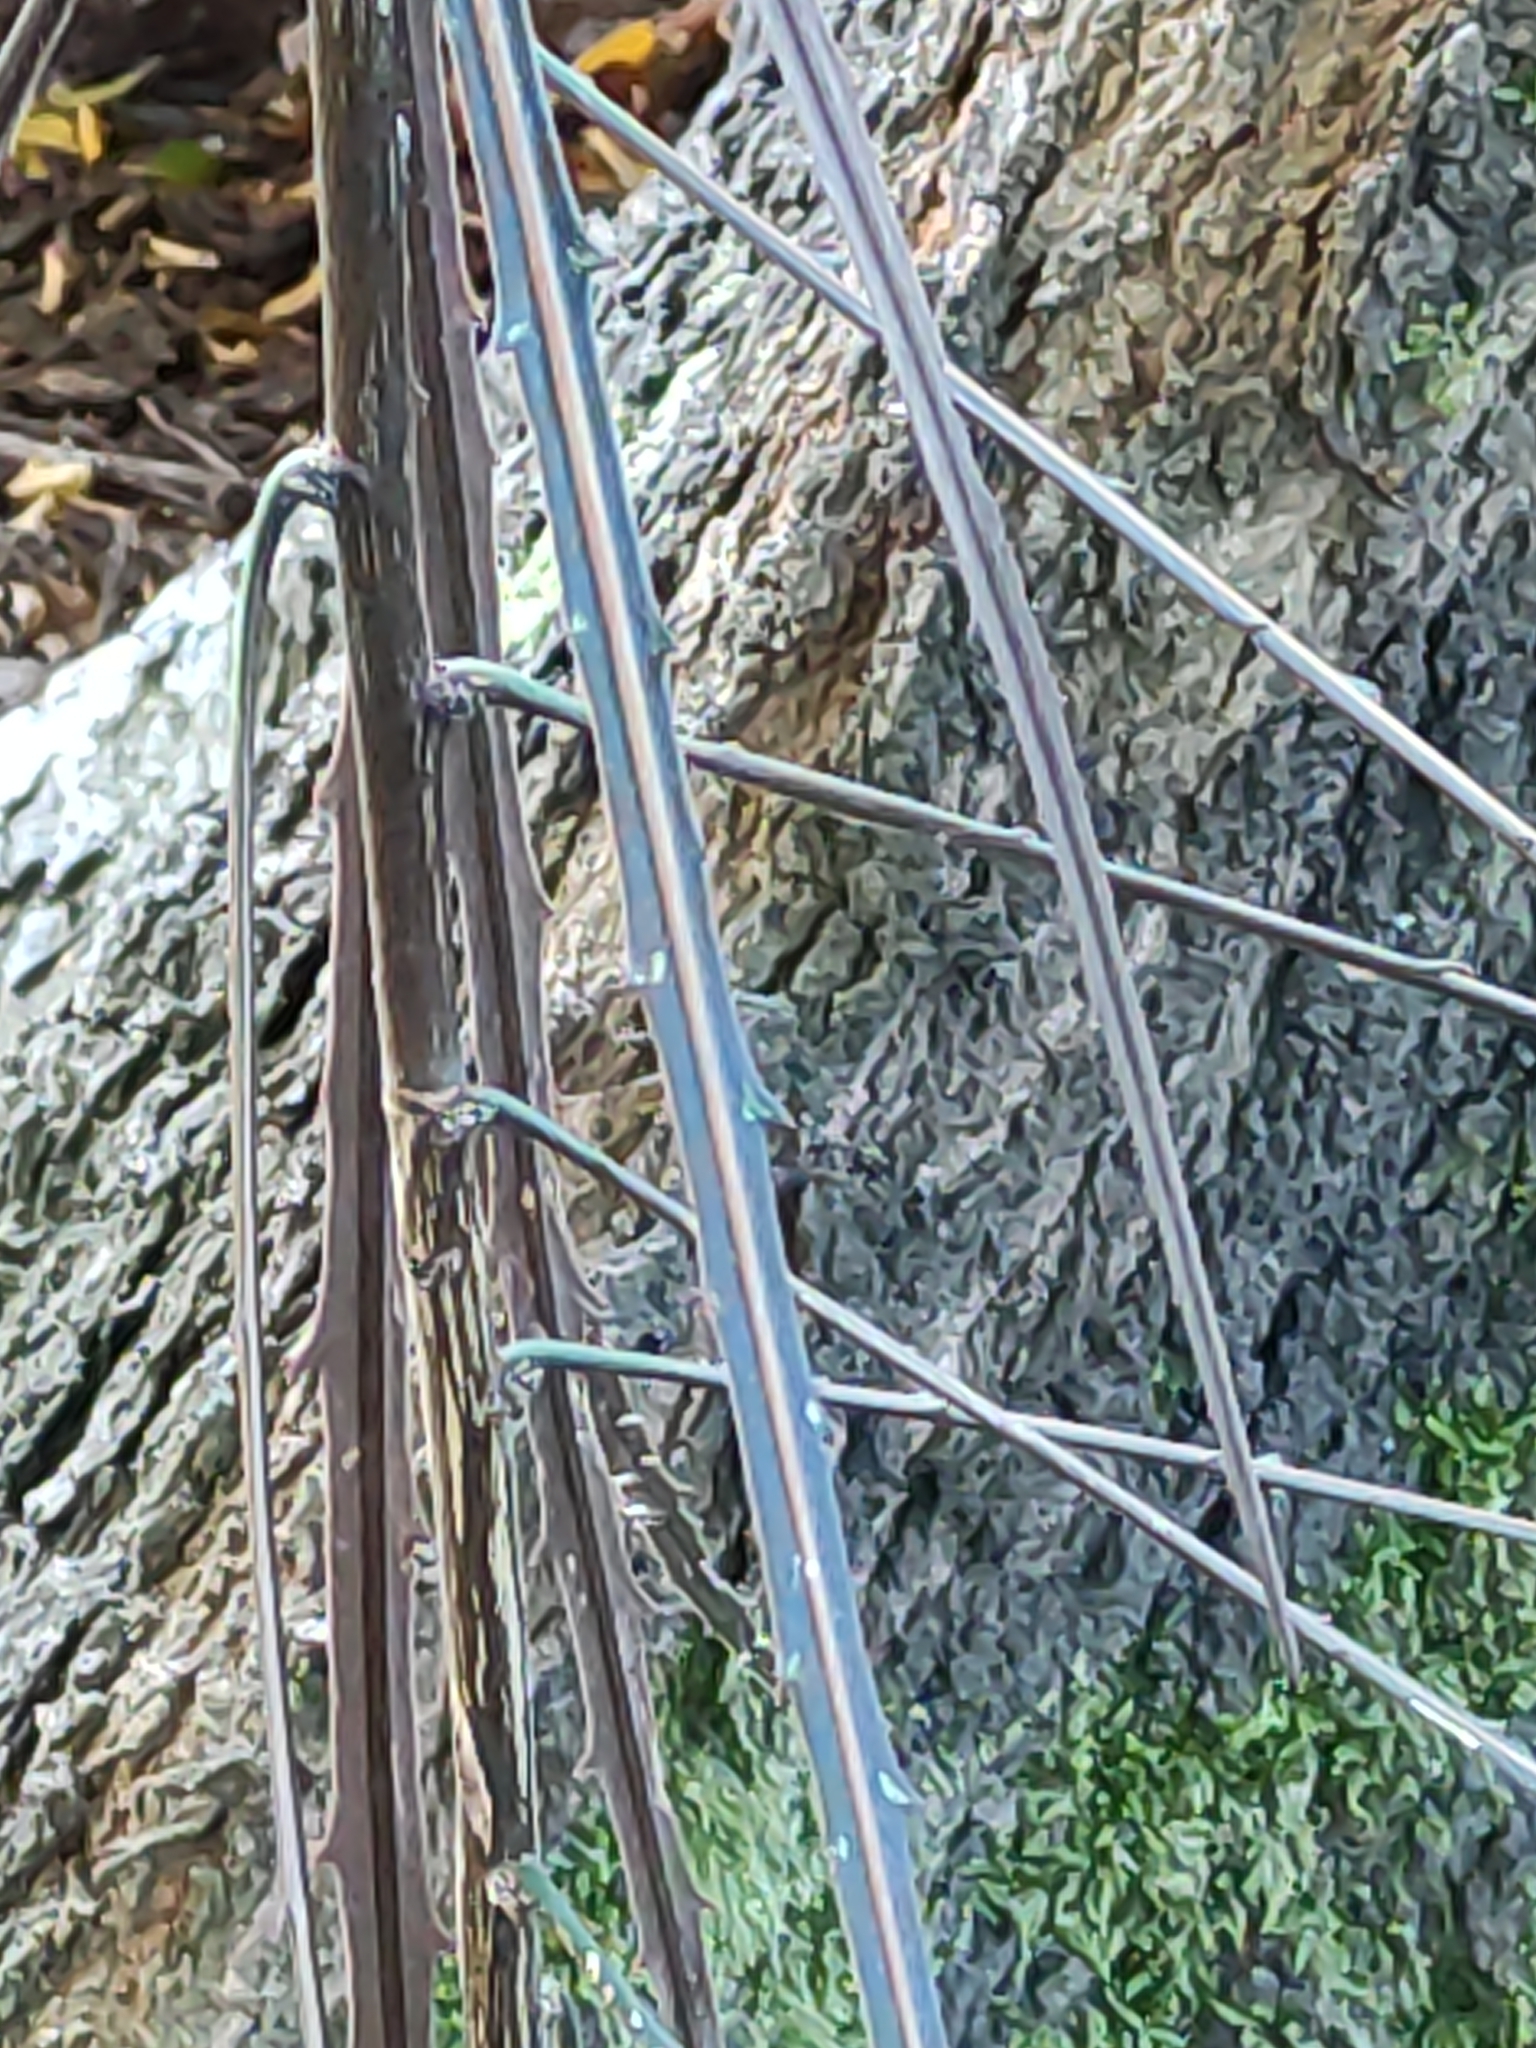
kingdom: Plantae
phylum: Tracheophyta
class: Magnoliopsida
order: Apiales
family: Araliaceae
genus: Pseudopanax
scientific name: Pseudopanax crassifolius
